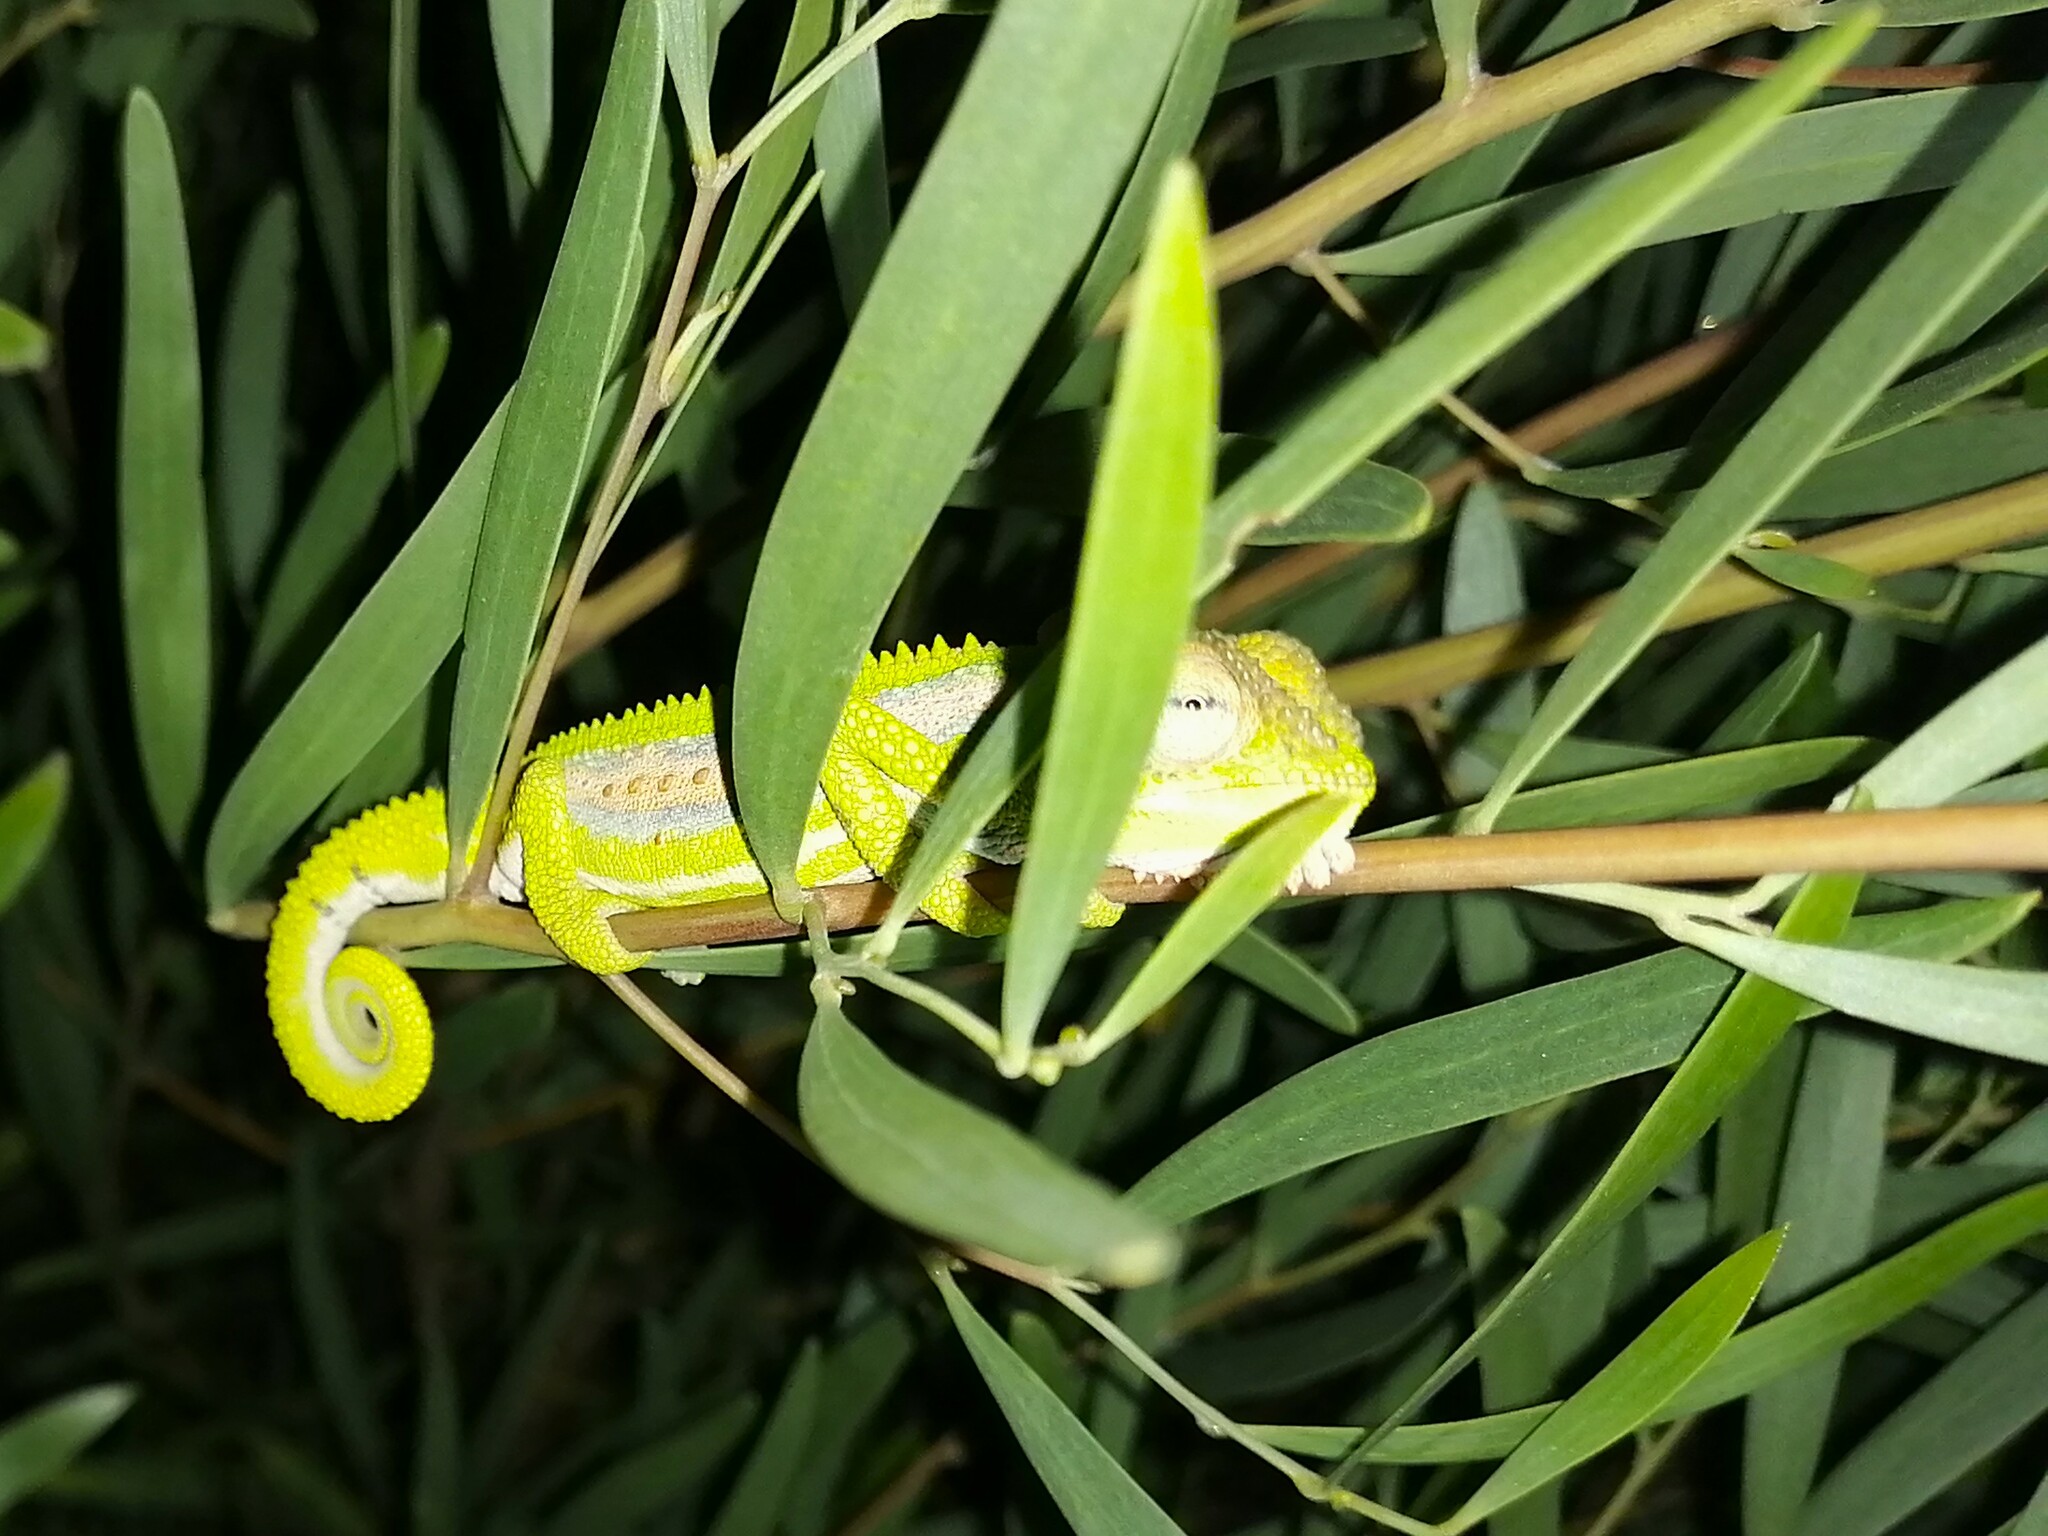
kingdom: Animalia
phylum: Chordata
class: Squamata
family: Chamaeleonidae
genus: Bradypodion
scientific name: Bradypodion pumilum
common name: Cape dwarf chameleon
